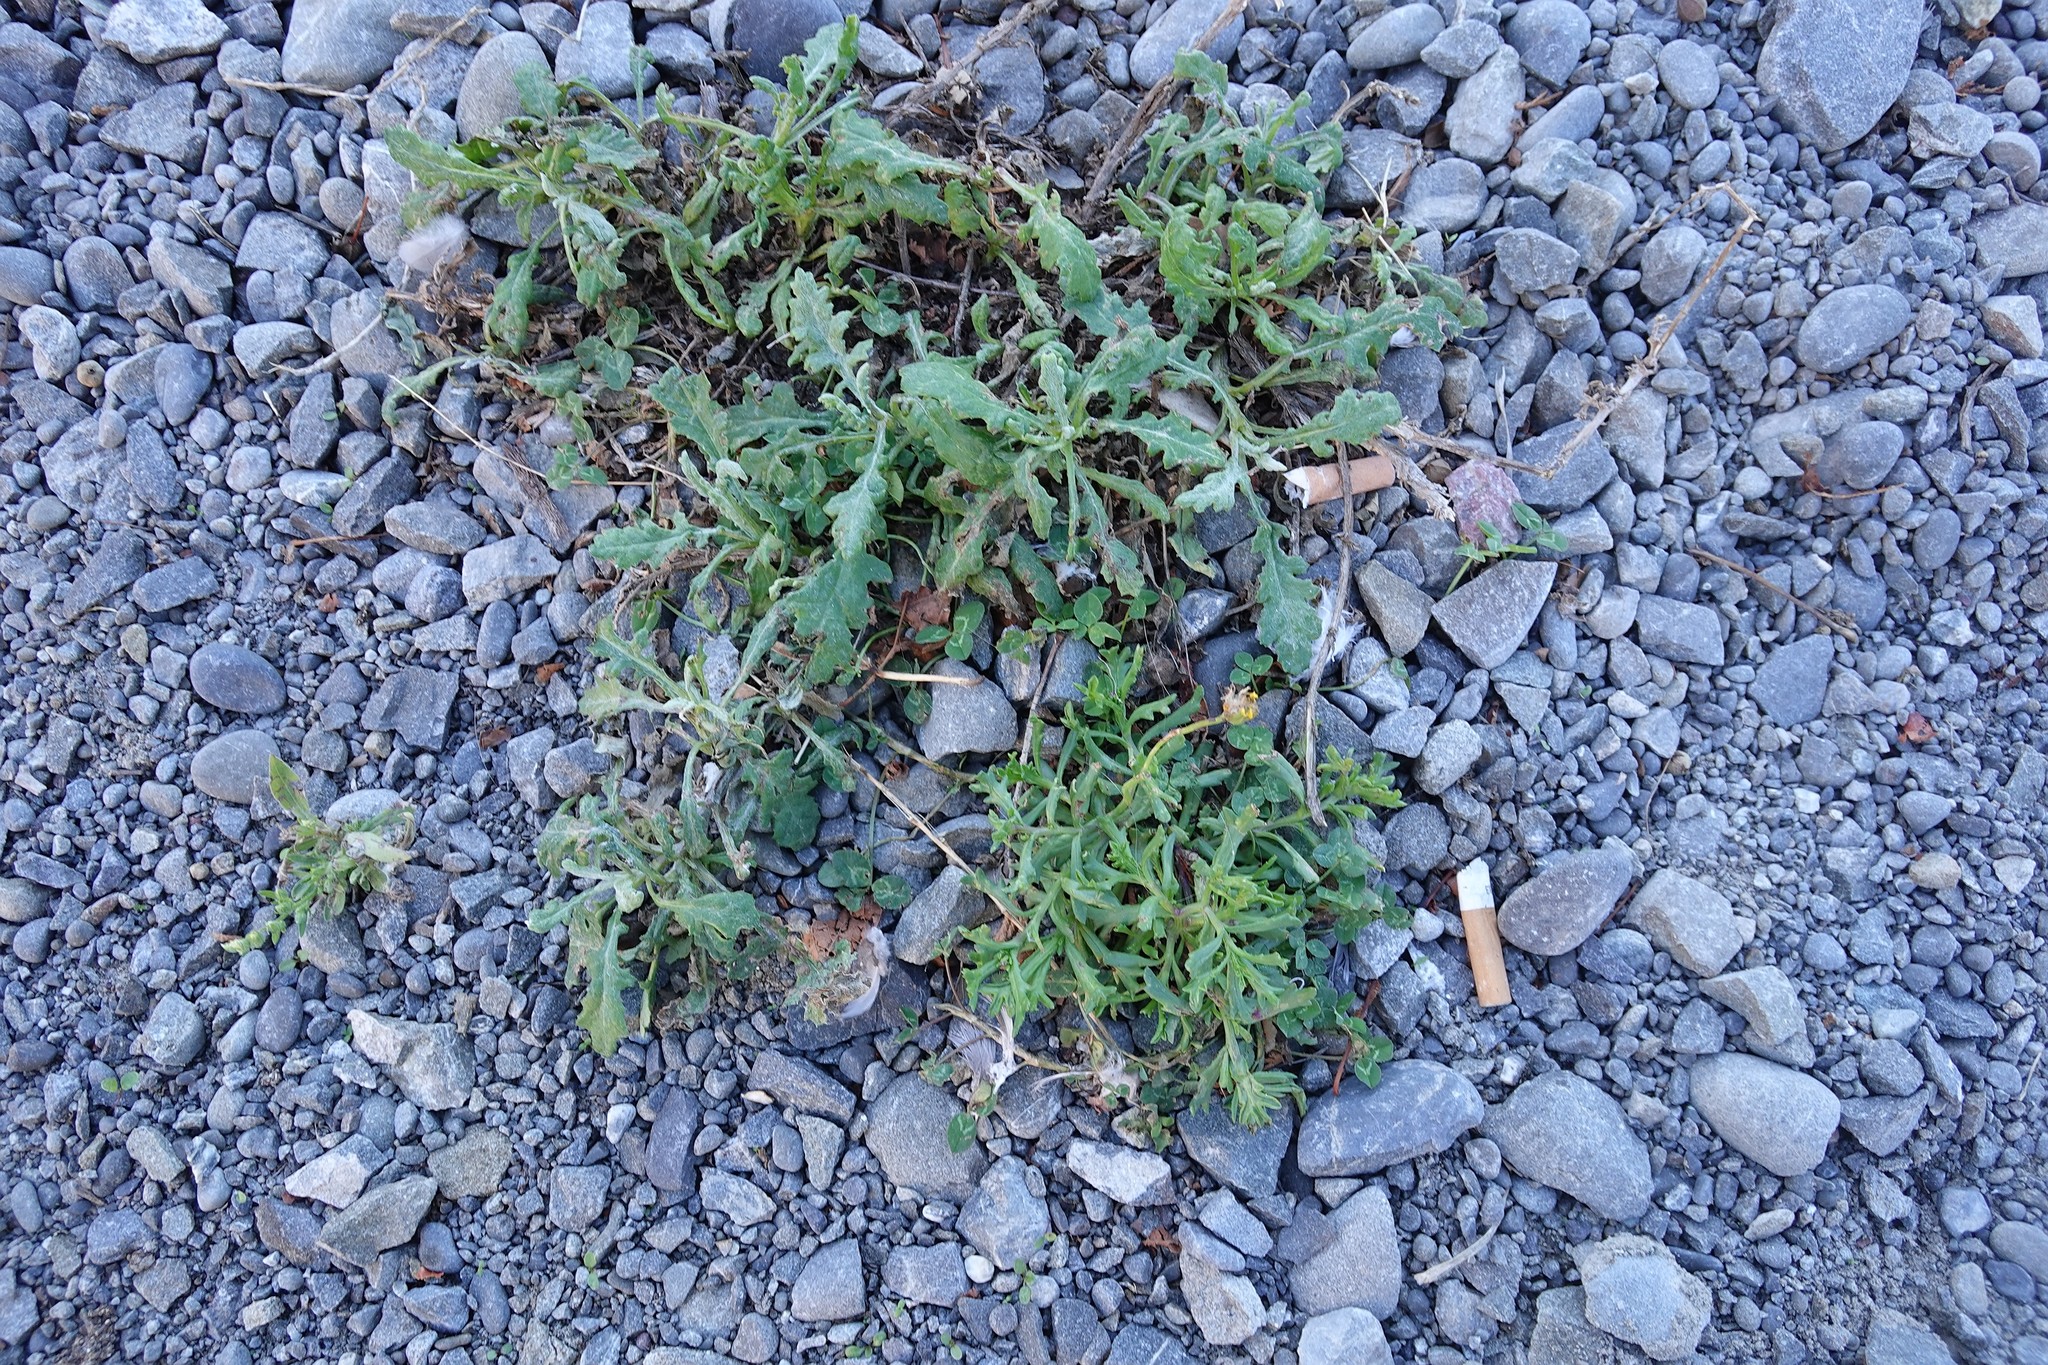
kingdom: Plantae
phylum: Tracheophyta
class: Magnoliopsida
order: Asterales
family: Asteraceae
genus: Senecio
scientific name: Senecio skirrhodon
